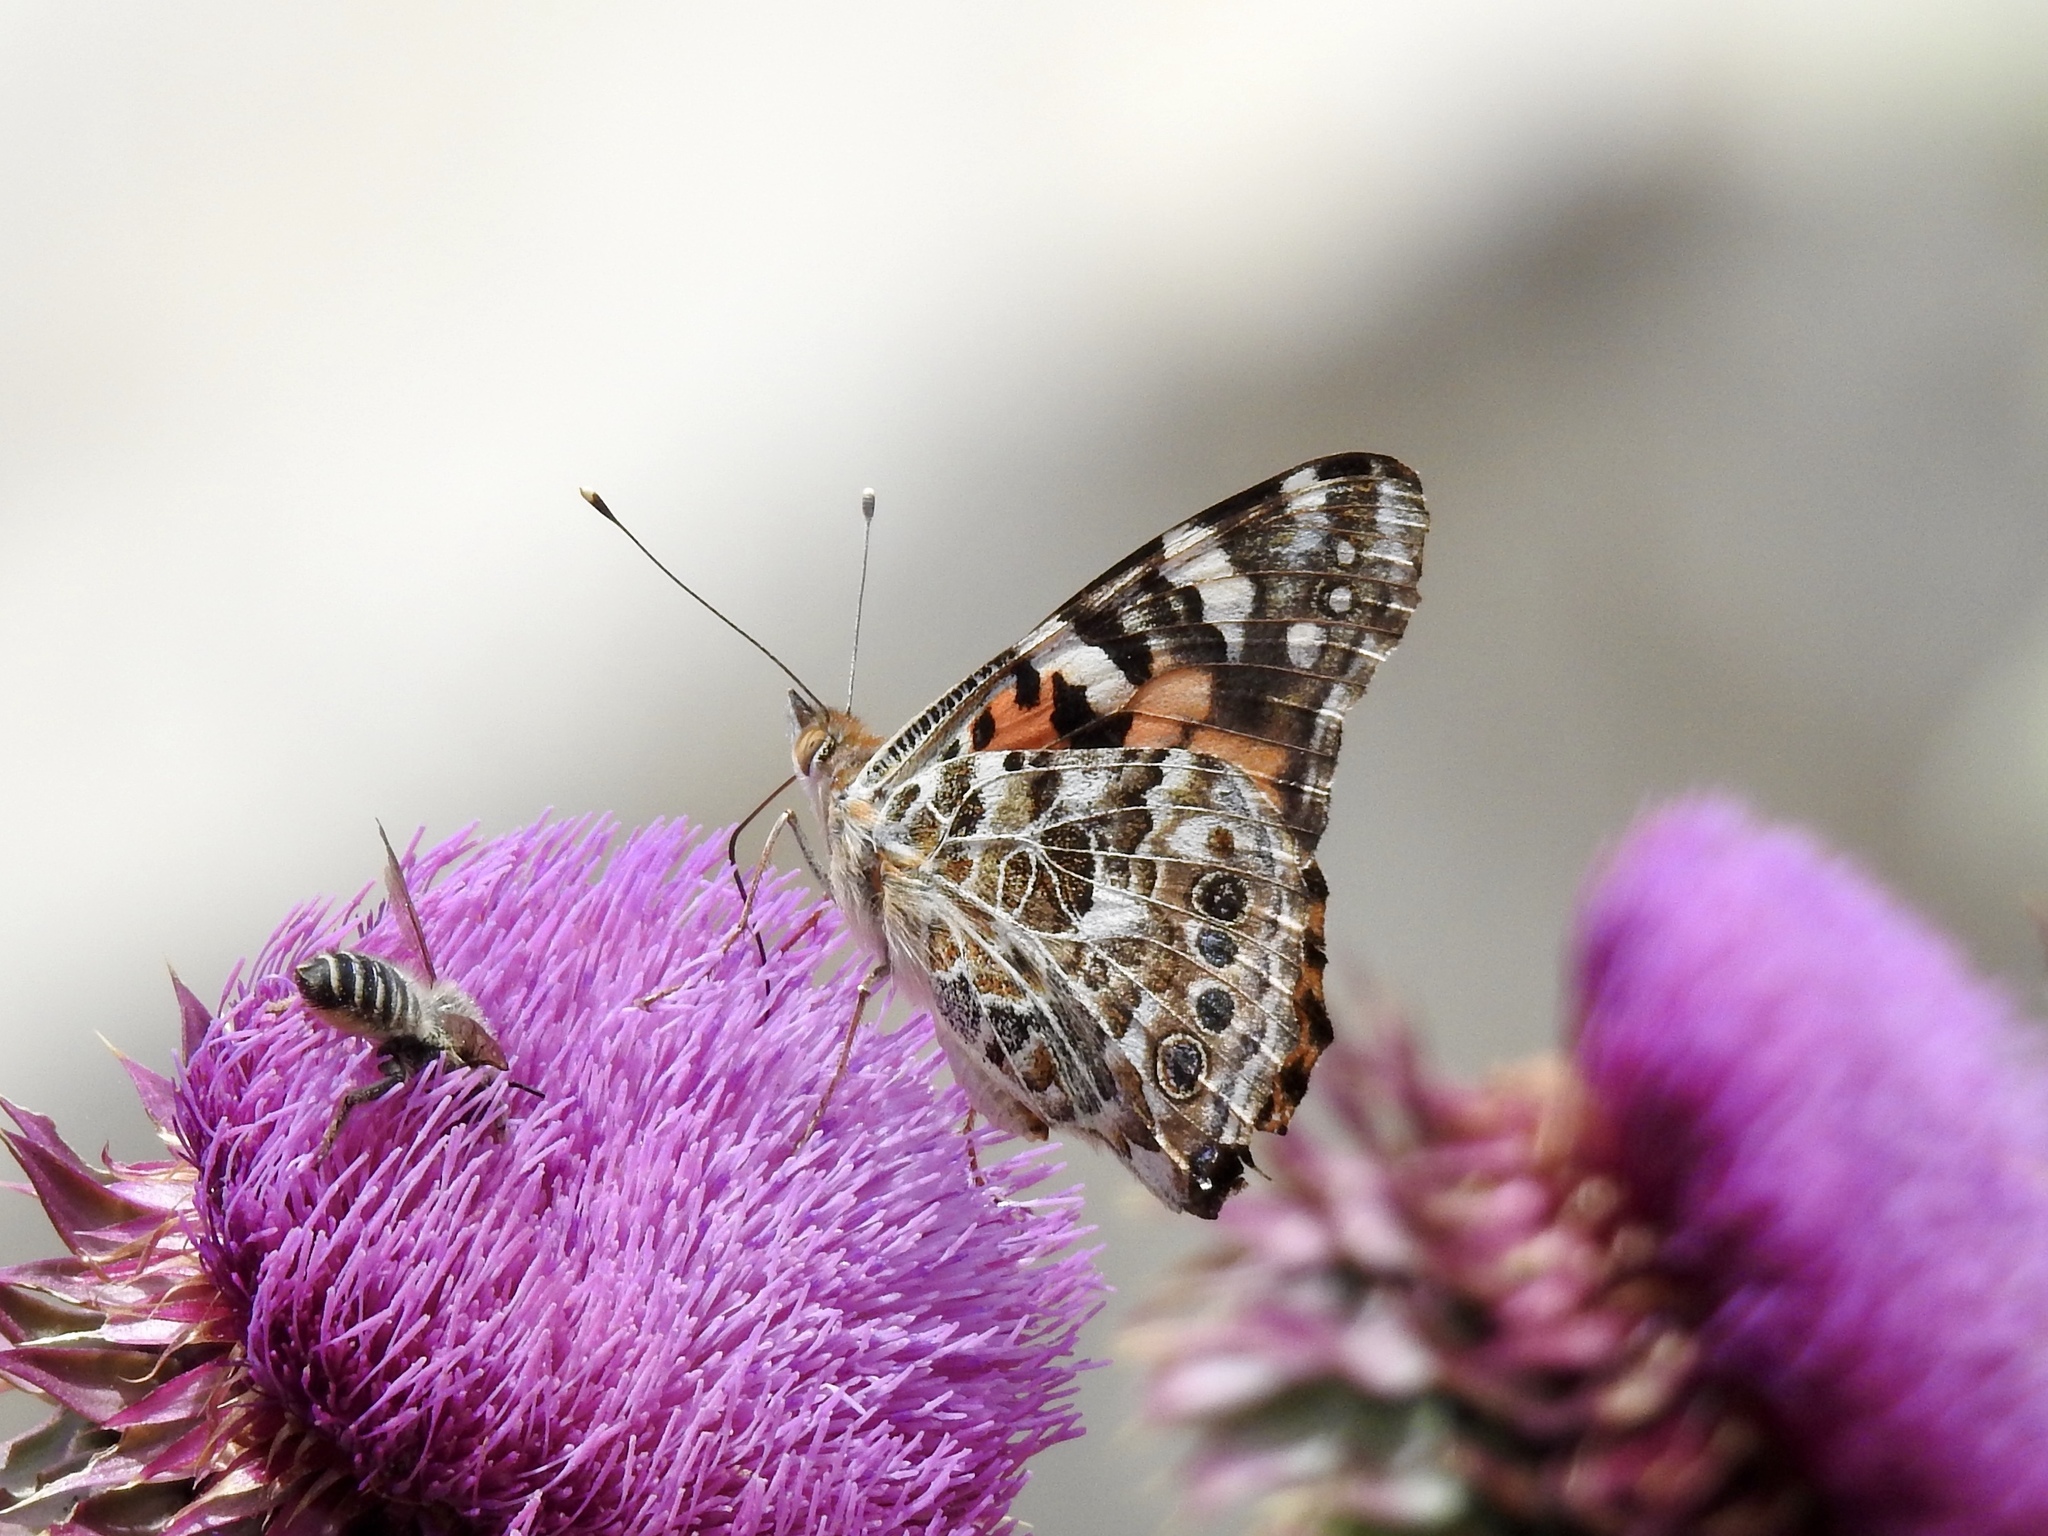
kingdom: Animalia
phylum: Arthropoda
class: Insecta
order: Lepidoptera
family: Nymphalidae
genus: Vanessa
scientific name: Vanessa cardui
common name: Painted lady
